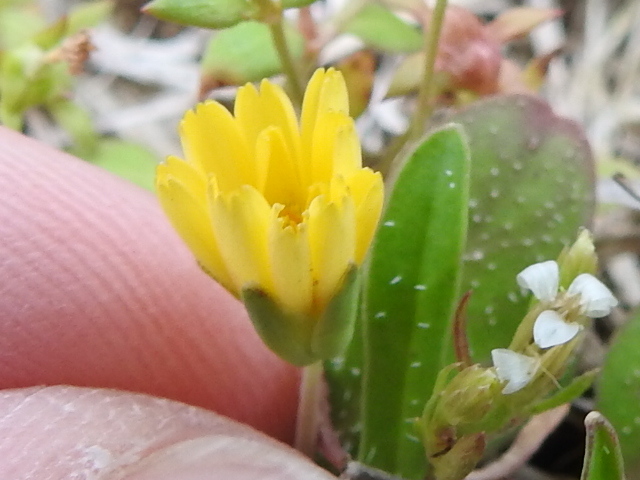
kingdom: Plantae
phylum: Tracheophyta
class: Magnoliopsida
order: Asterales
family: Asteraceae
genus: Krigia
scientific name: Krigia occidentalis
